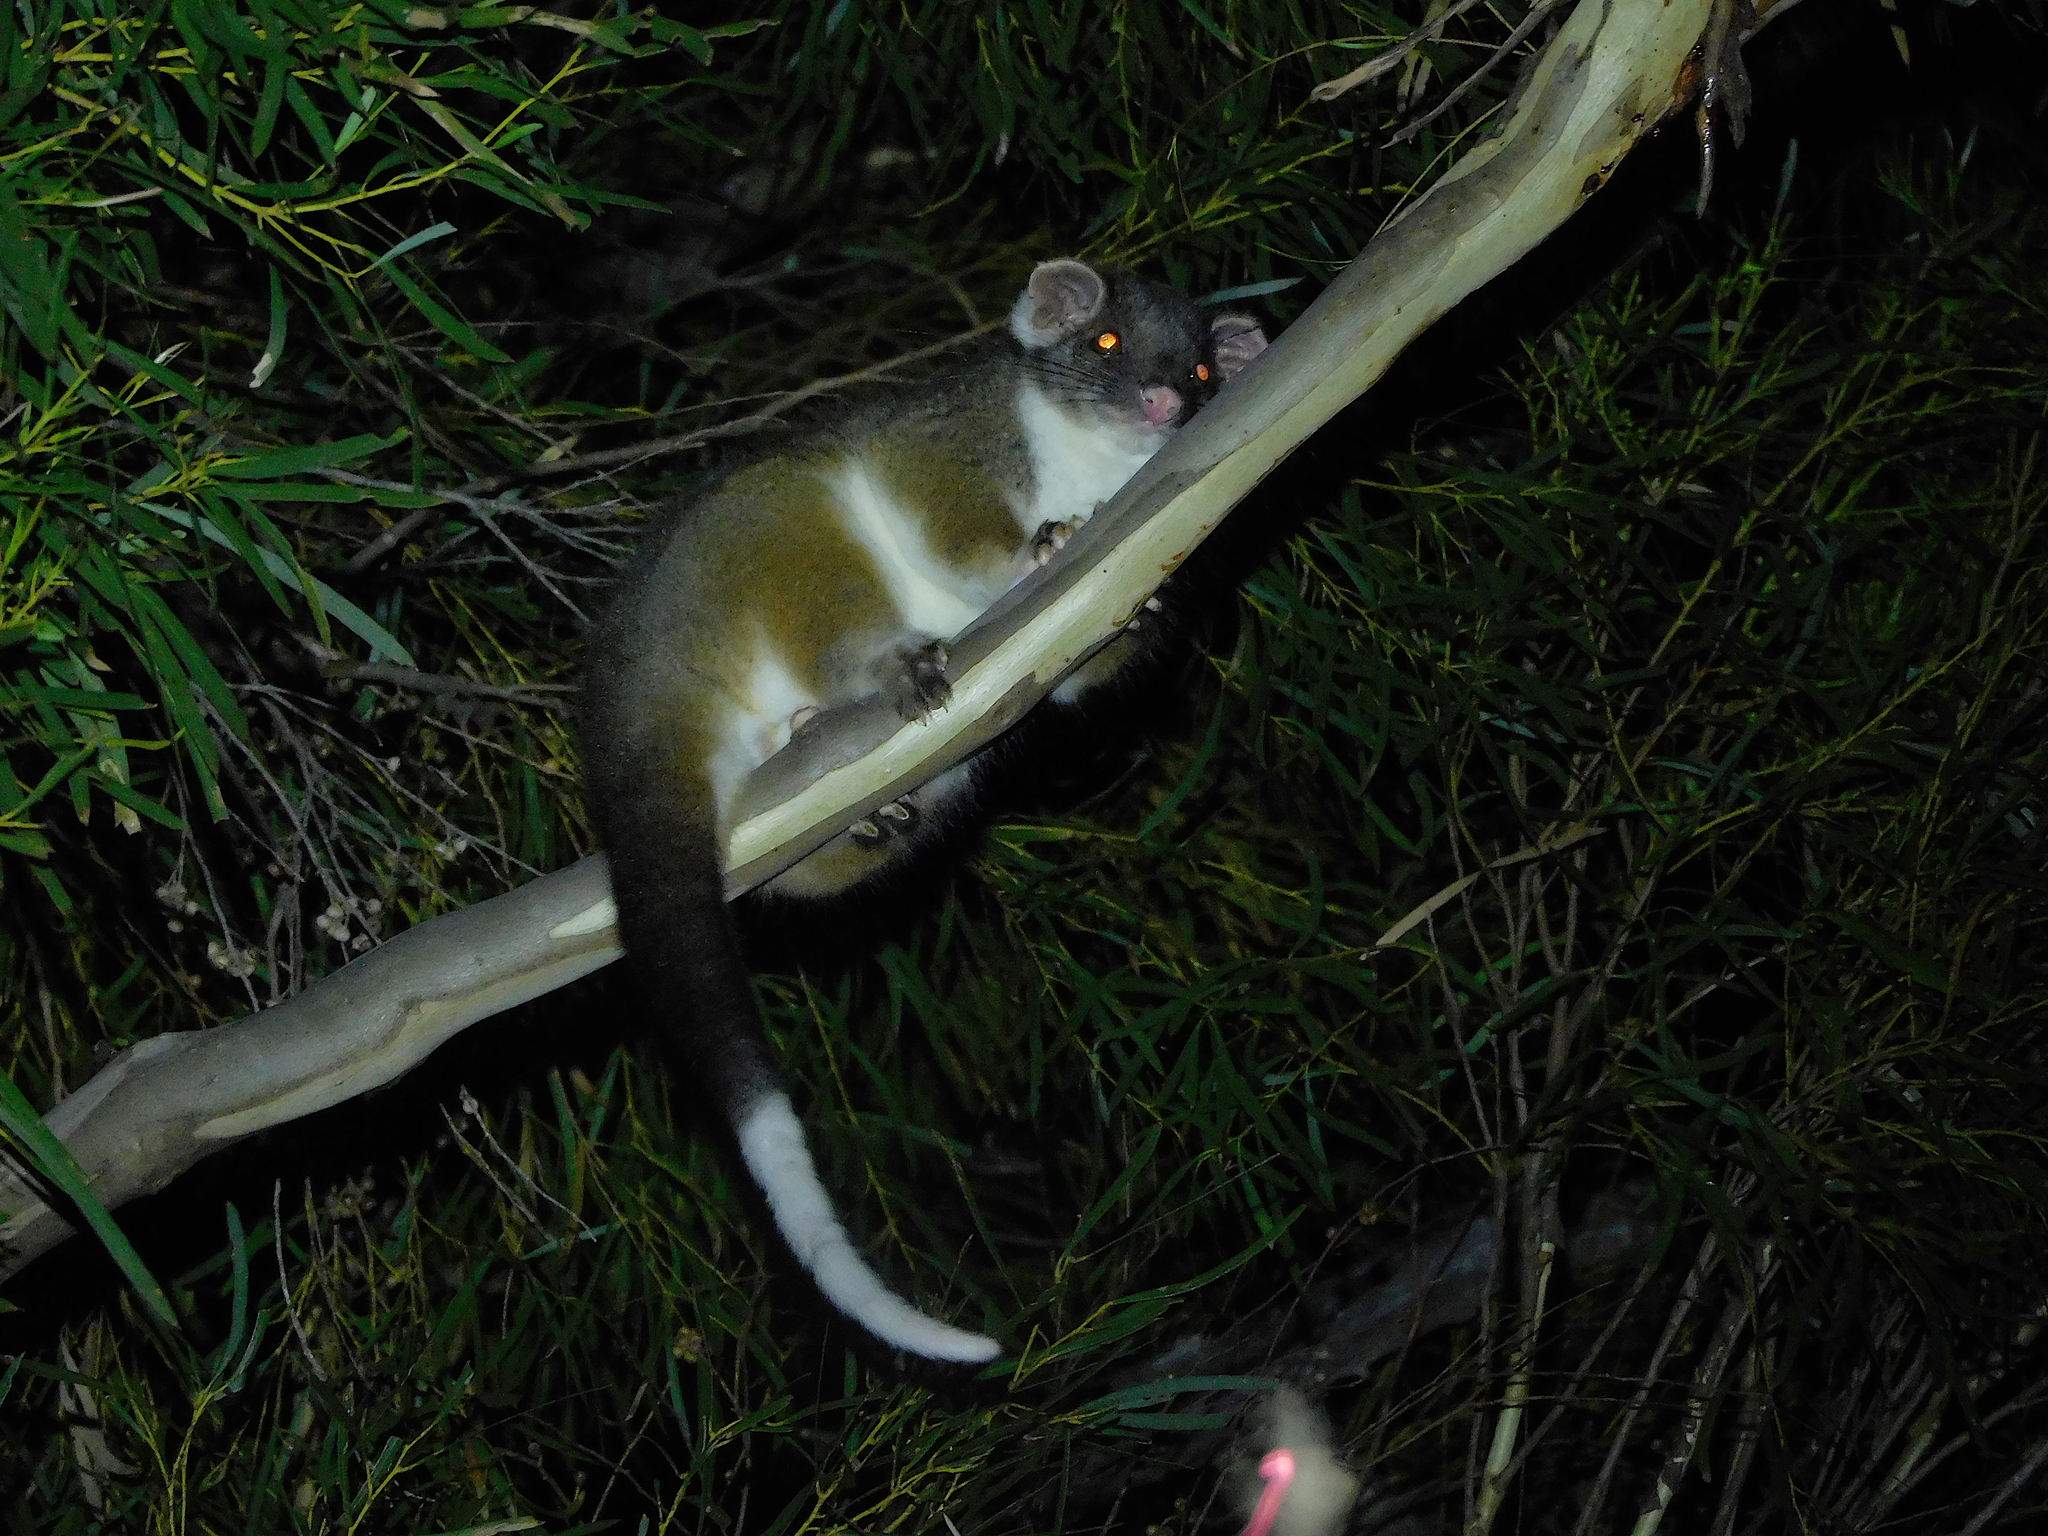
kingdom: Animalia
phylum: Chordata
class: Mammalia
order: Diprotodontia
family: Pseudocheiridae
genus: Pseudocheirus
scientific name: Pseudocheirus peregrinus
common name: Common ringtail possum
